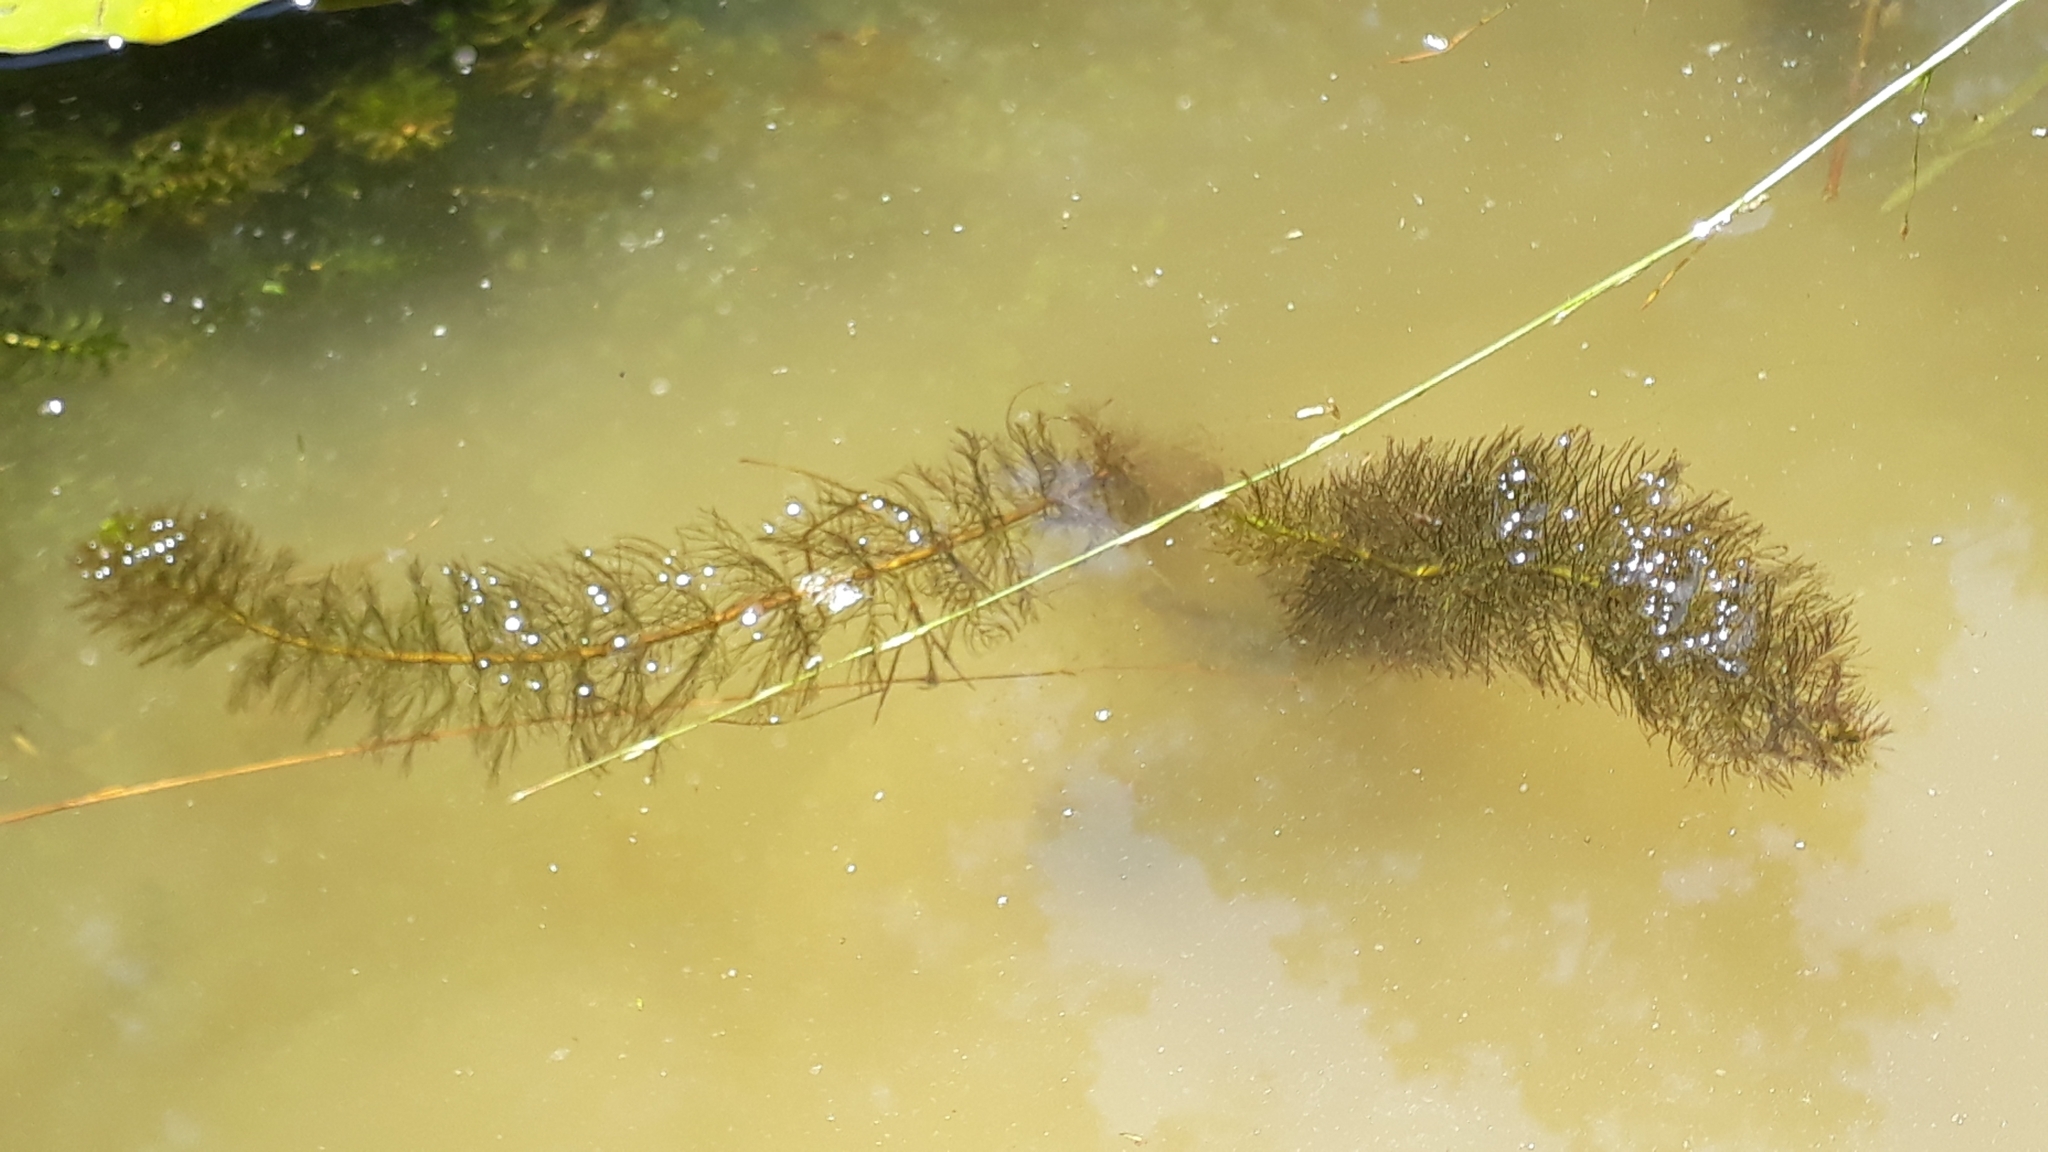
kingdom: Plantae
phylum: Tracheophyta
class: Magnoliopsida
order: Saxifragales
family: Haloragaceae
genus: Myriophyllum
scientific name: Myriophyllum heterophyllum
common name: Variable watermilfoil
